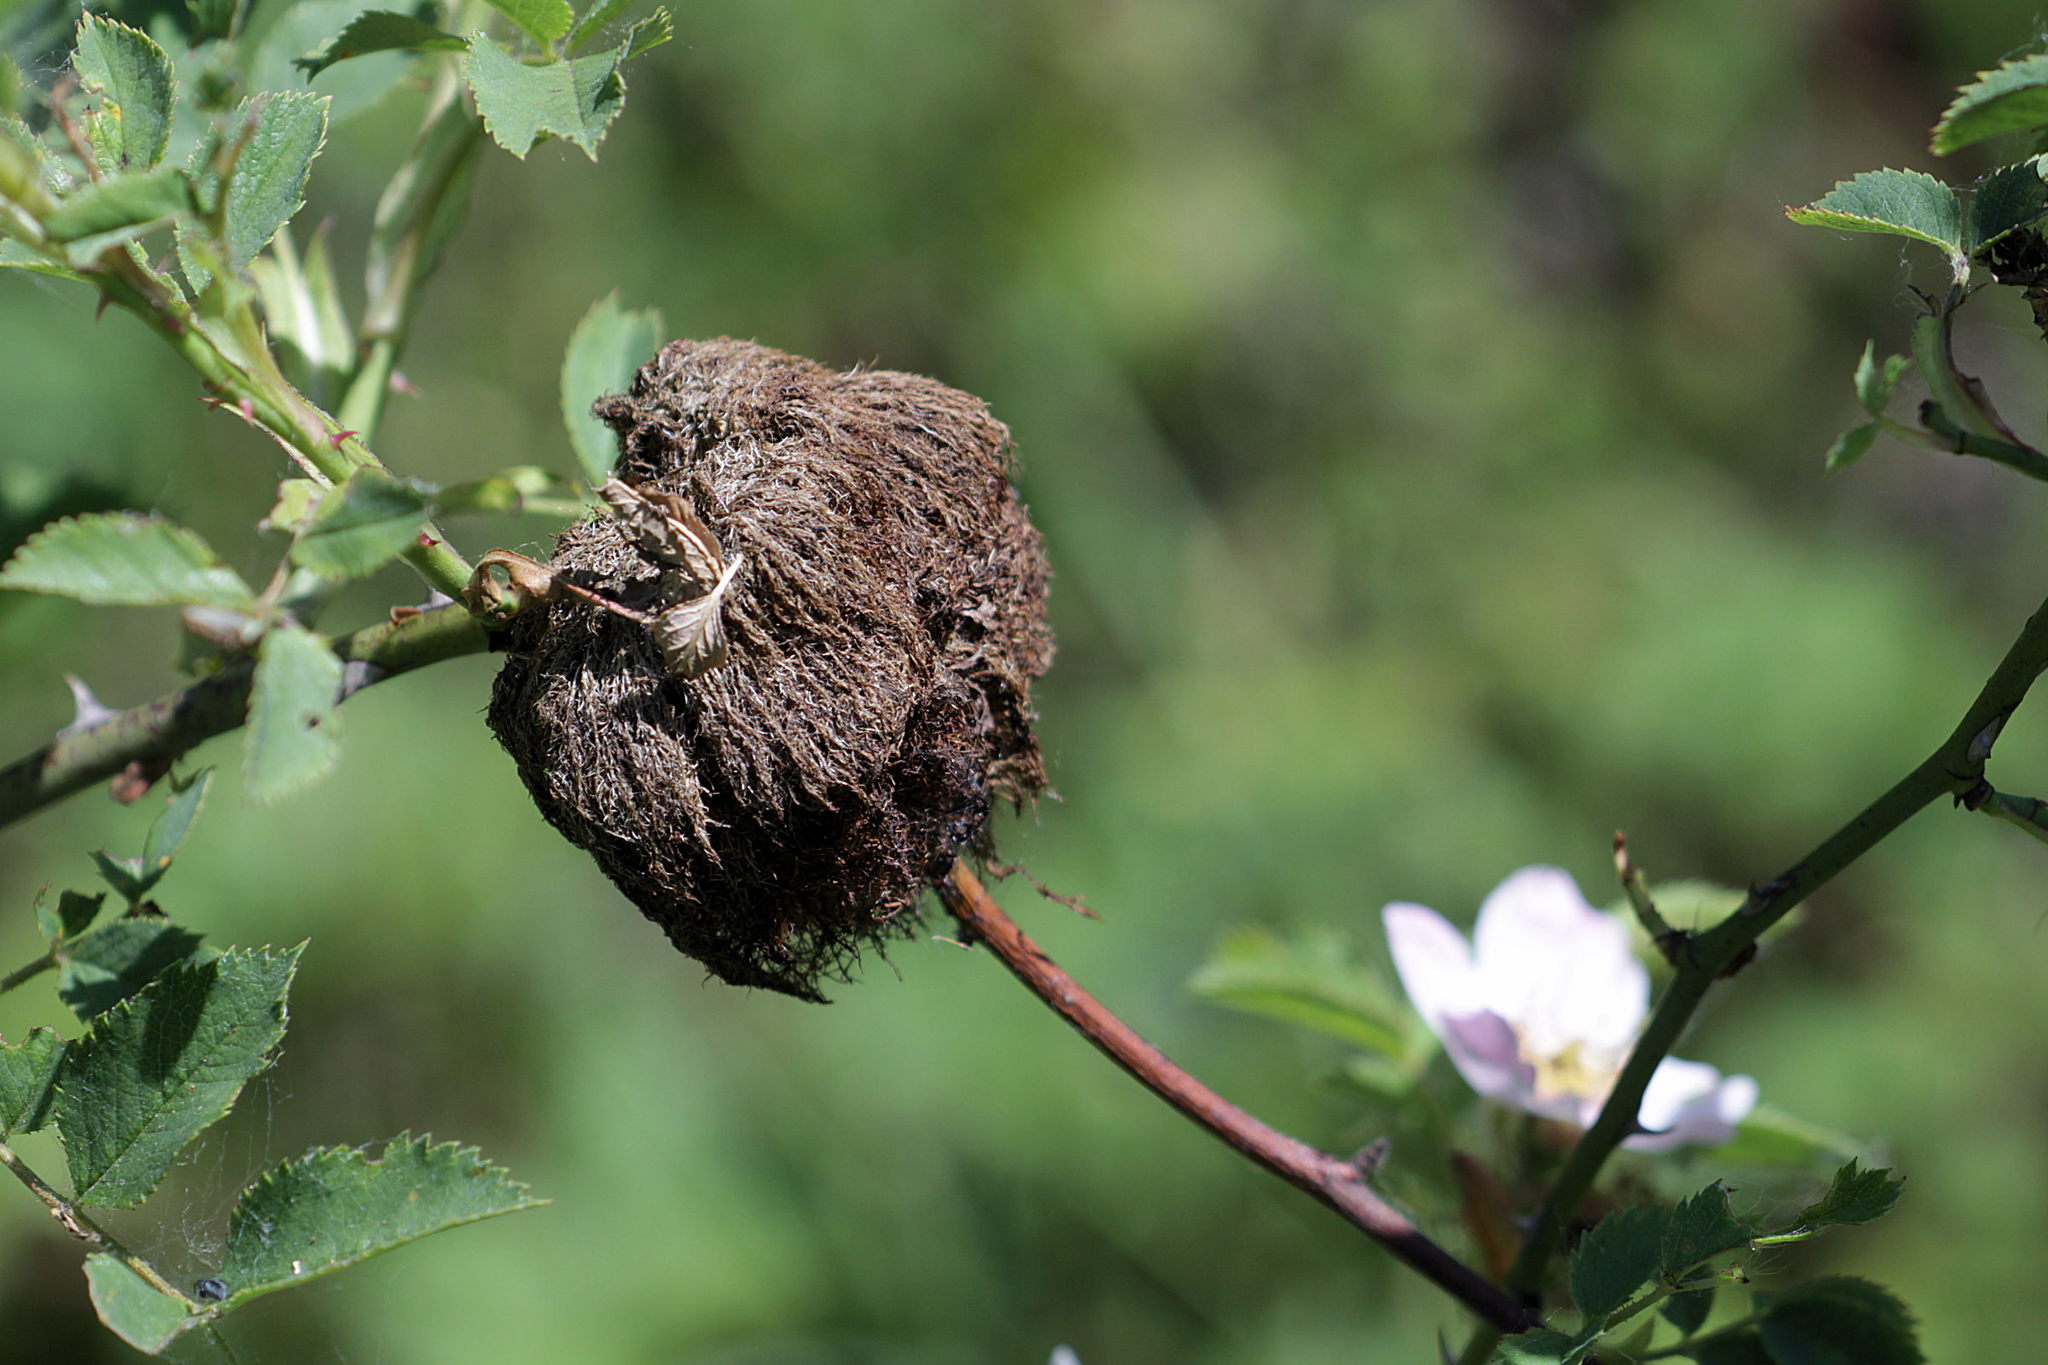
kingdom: Animalia
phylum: Arthropoda
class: Insecta
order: Hymenoptera
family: Cynipidae
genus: Diplolepis
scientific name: Diplolepis rosae
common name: Bedeguar gall
